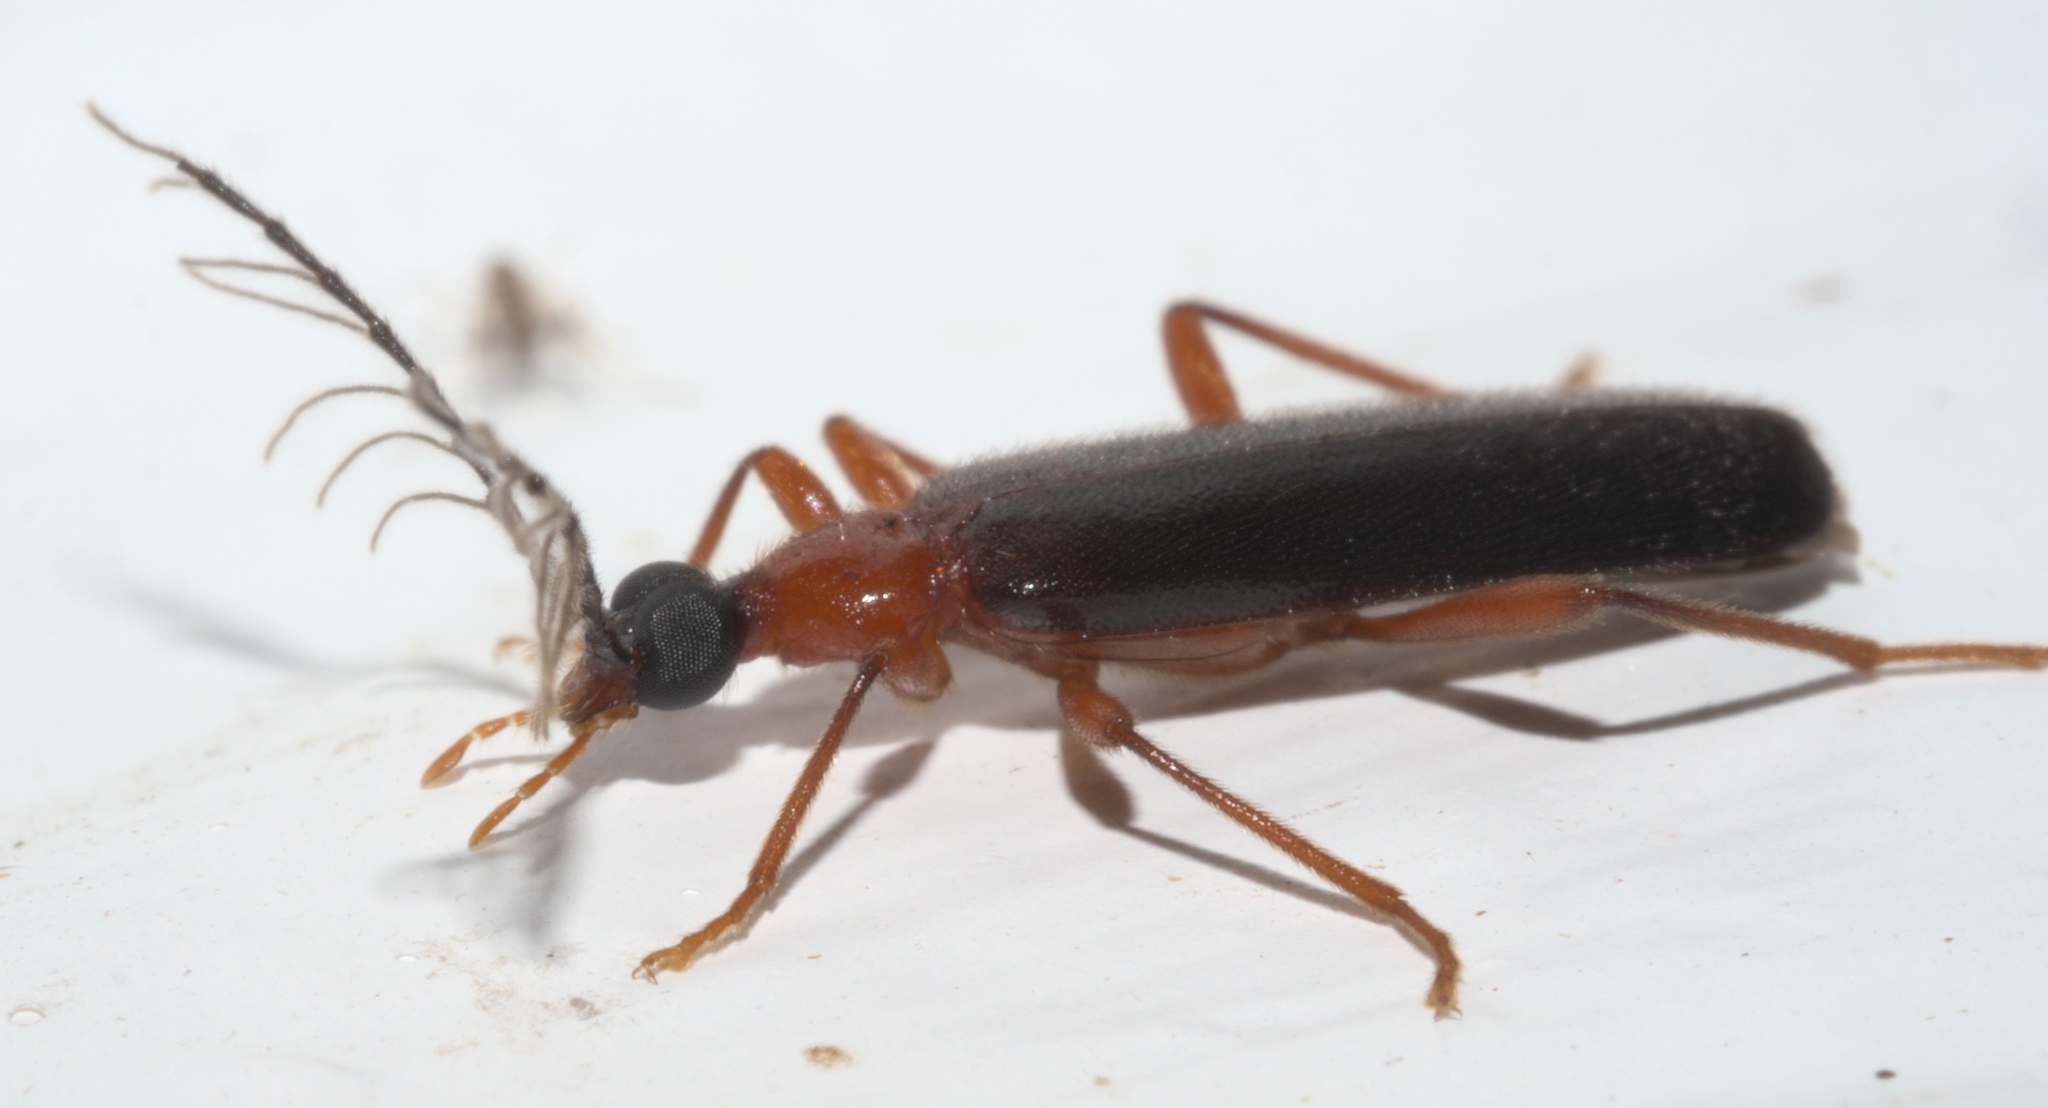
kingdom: Animalia
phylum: Arthropoda
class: Insecta
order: Coleoptera
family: Pyrochroidae
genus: Dendroides
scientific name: Dendroides canadensis
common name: Canada fire-colored beetle
